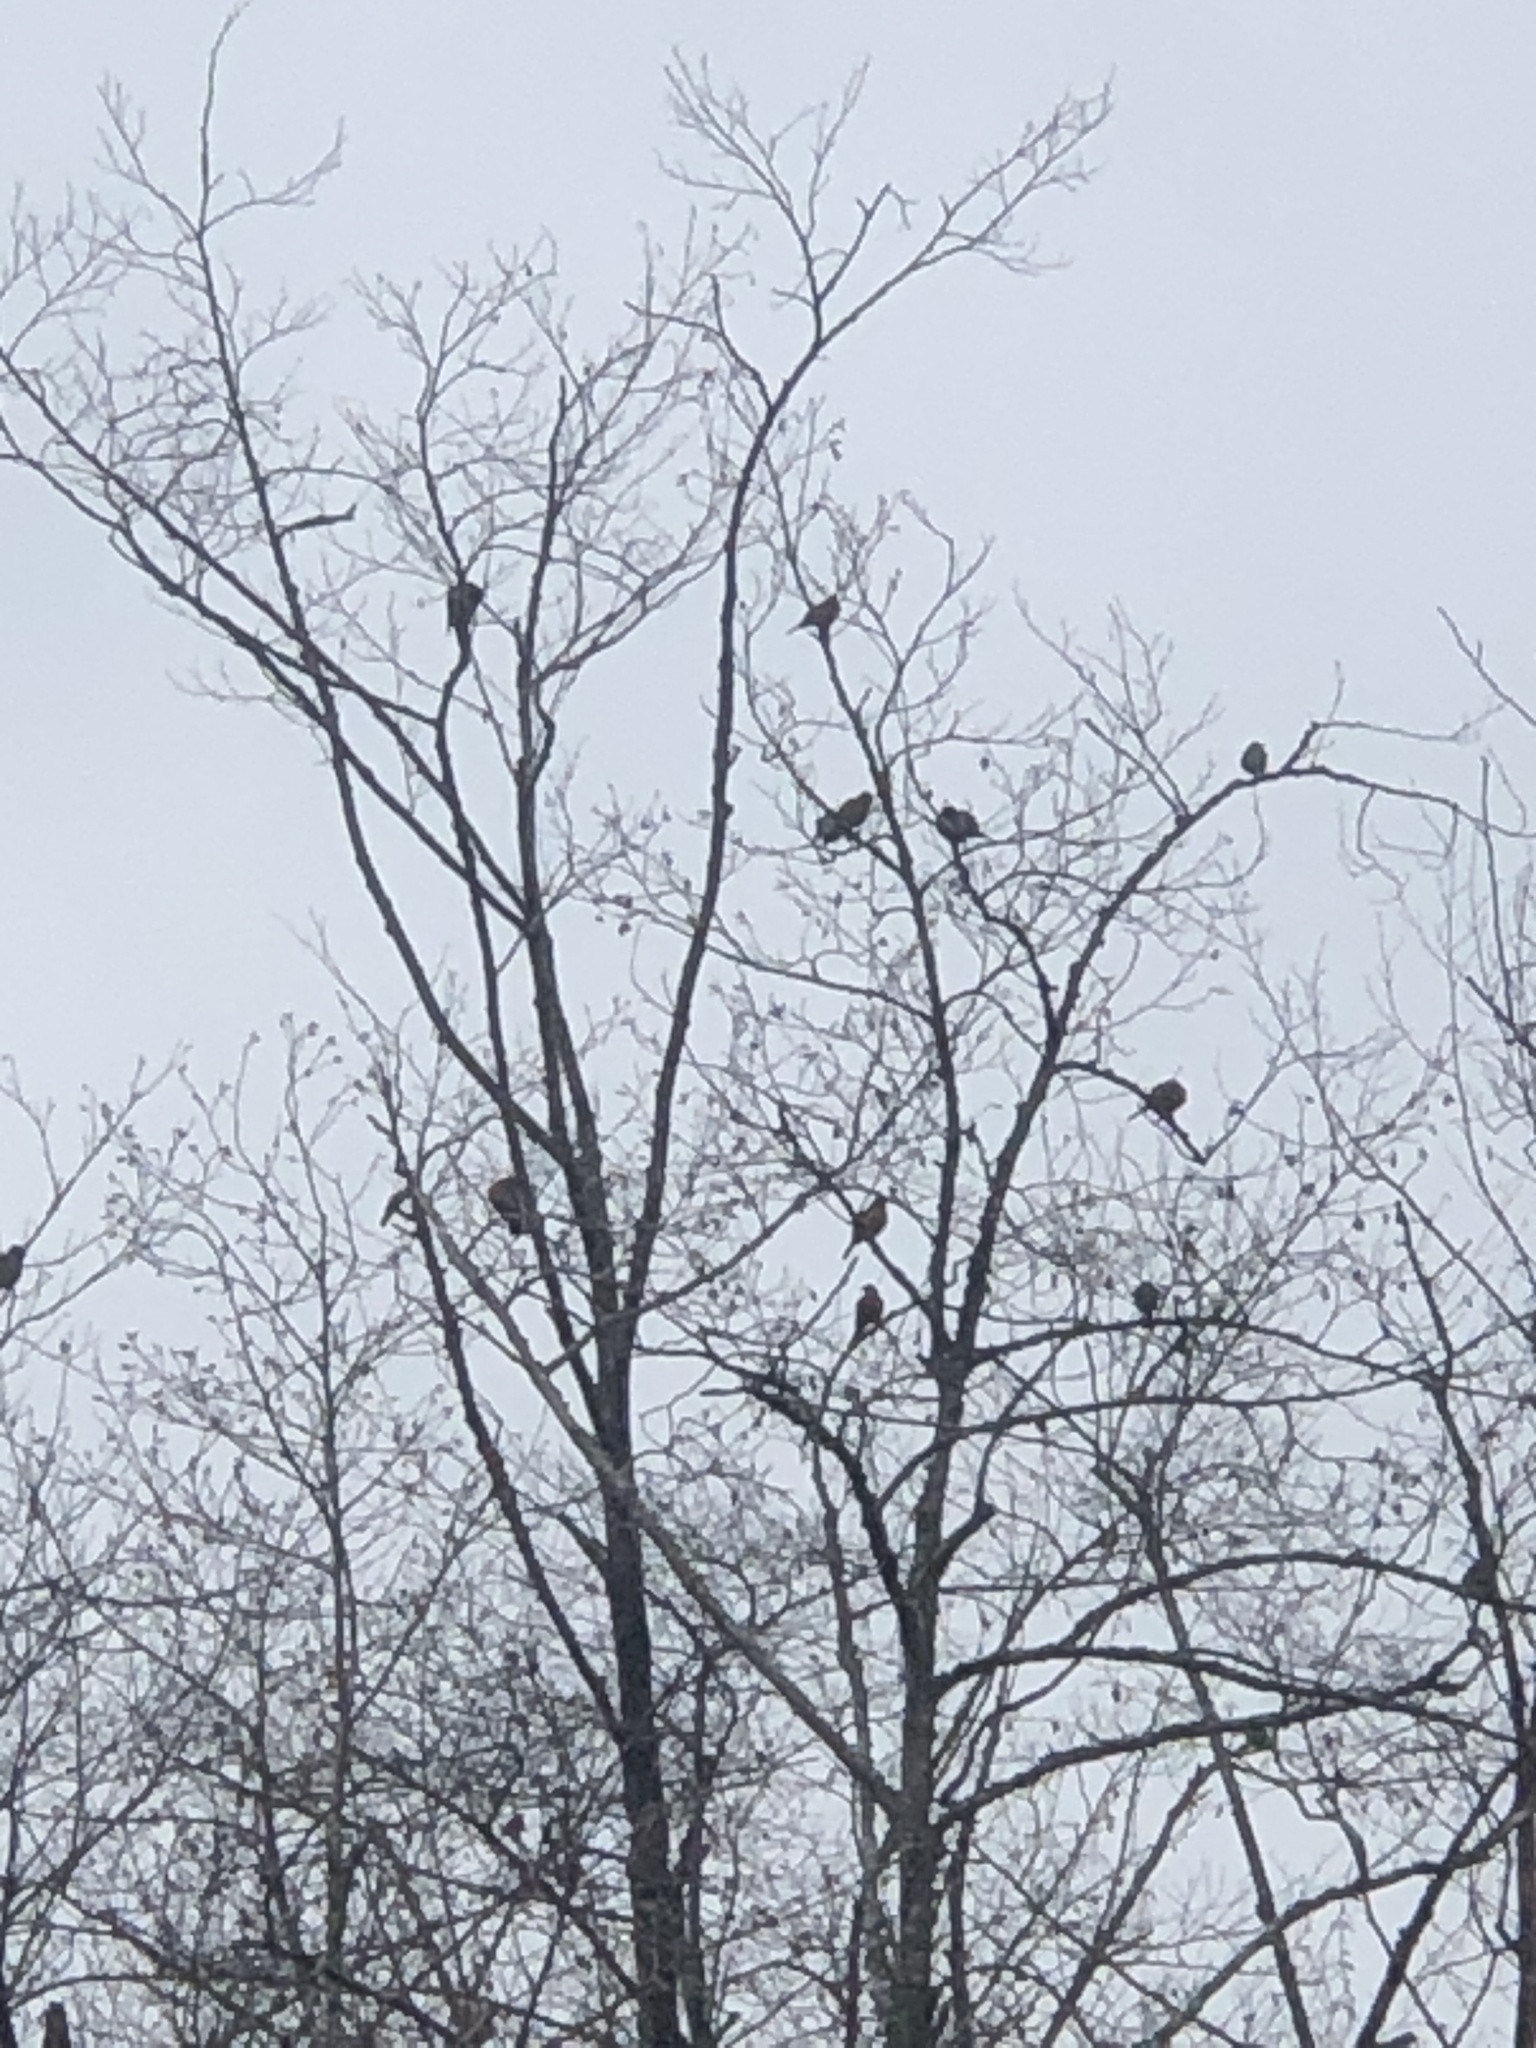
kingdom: Animalia
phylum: Chordata
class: Aves
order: Passeriformes
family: Turdidae
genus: Turdus
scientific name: Turdus migratorius
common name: American robin
